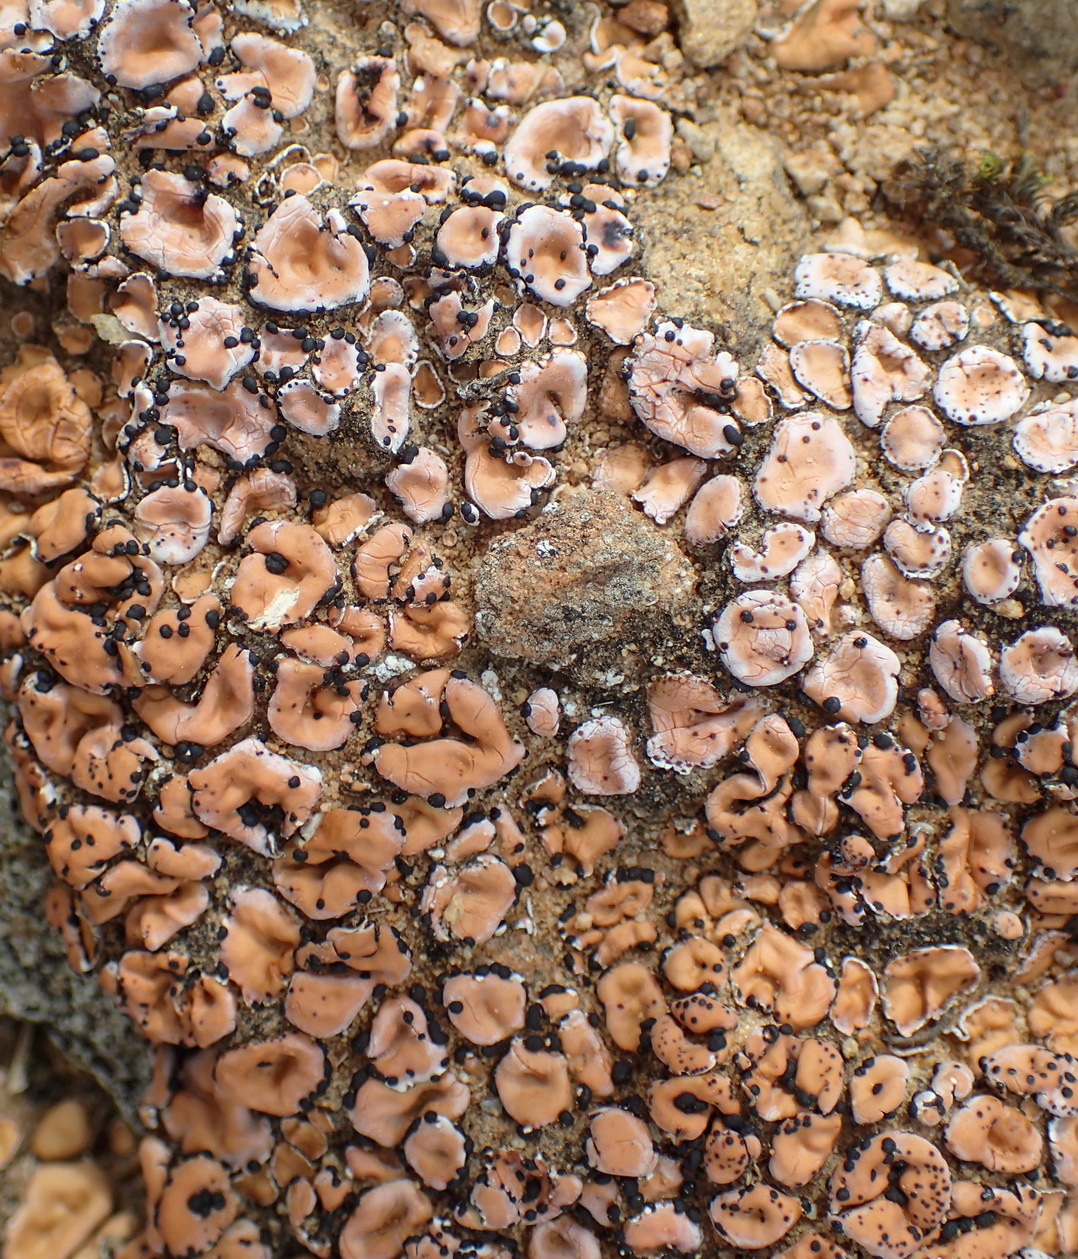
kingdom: Fungi
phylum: Ascomycota
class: Lecanoromycetes
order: Lecanorales
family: Psoraceae
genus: Psora
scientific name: Psora crenata
